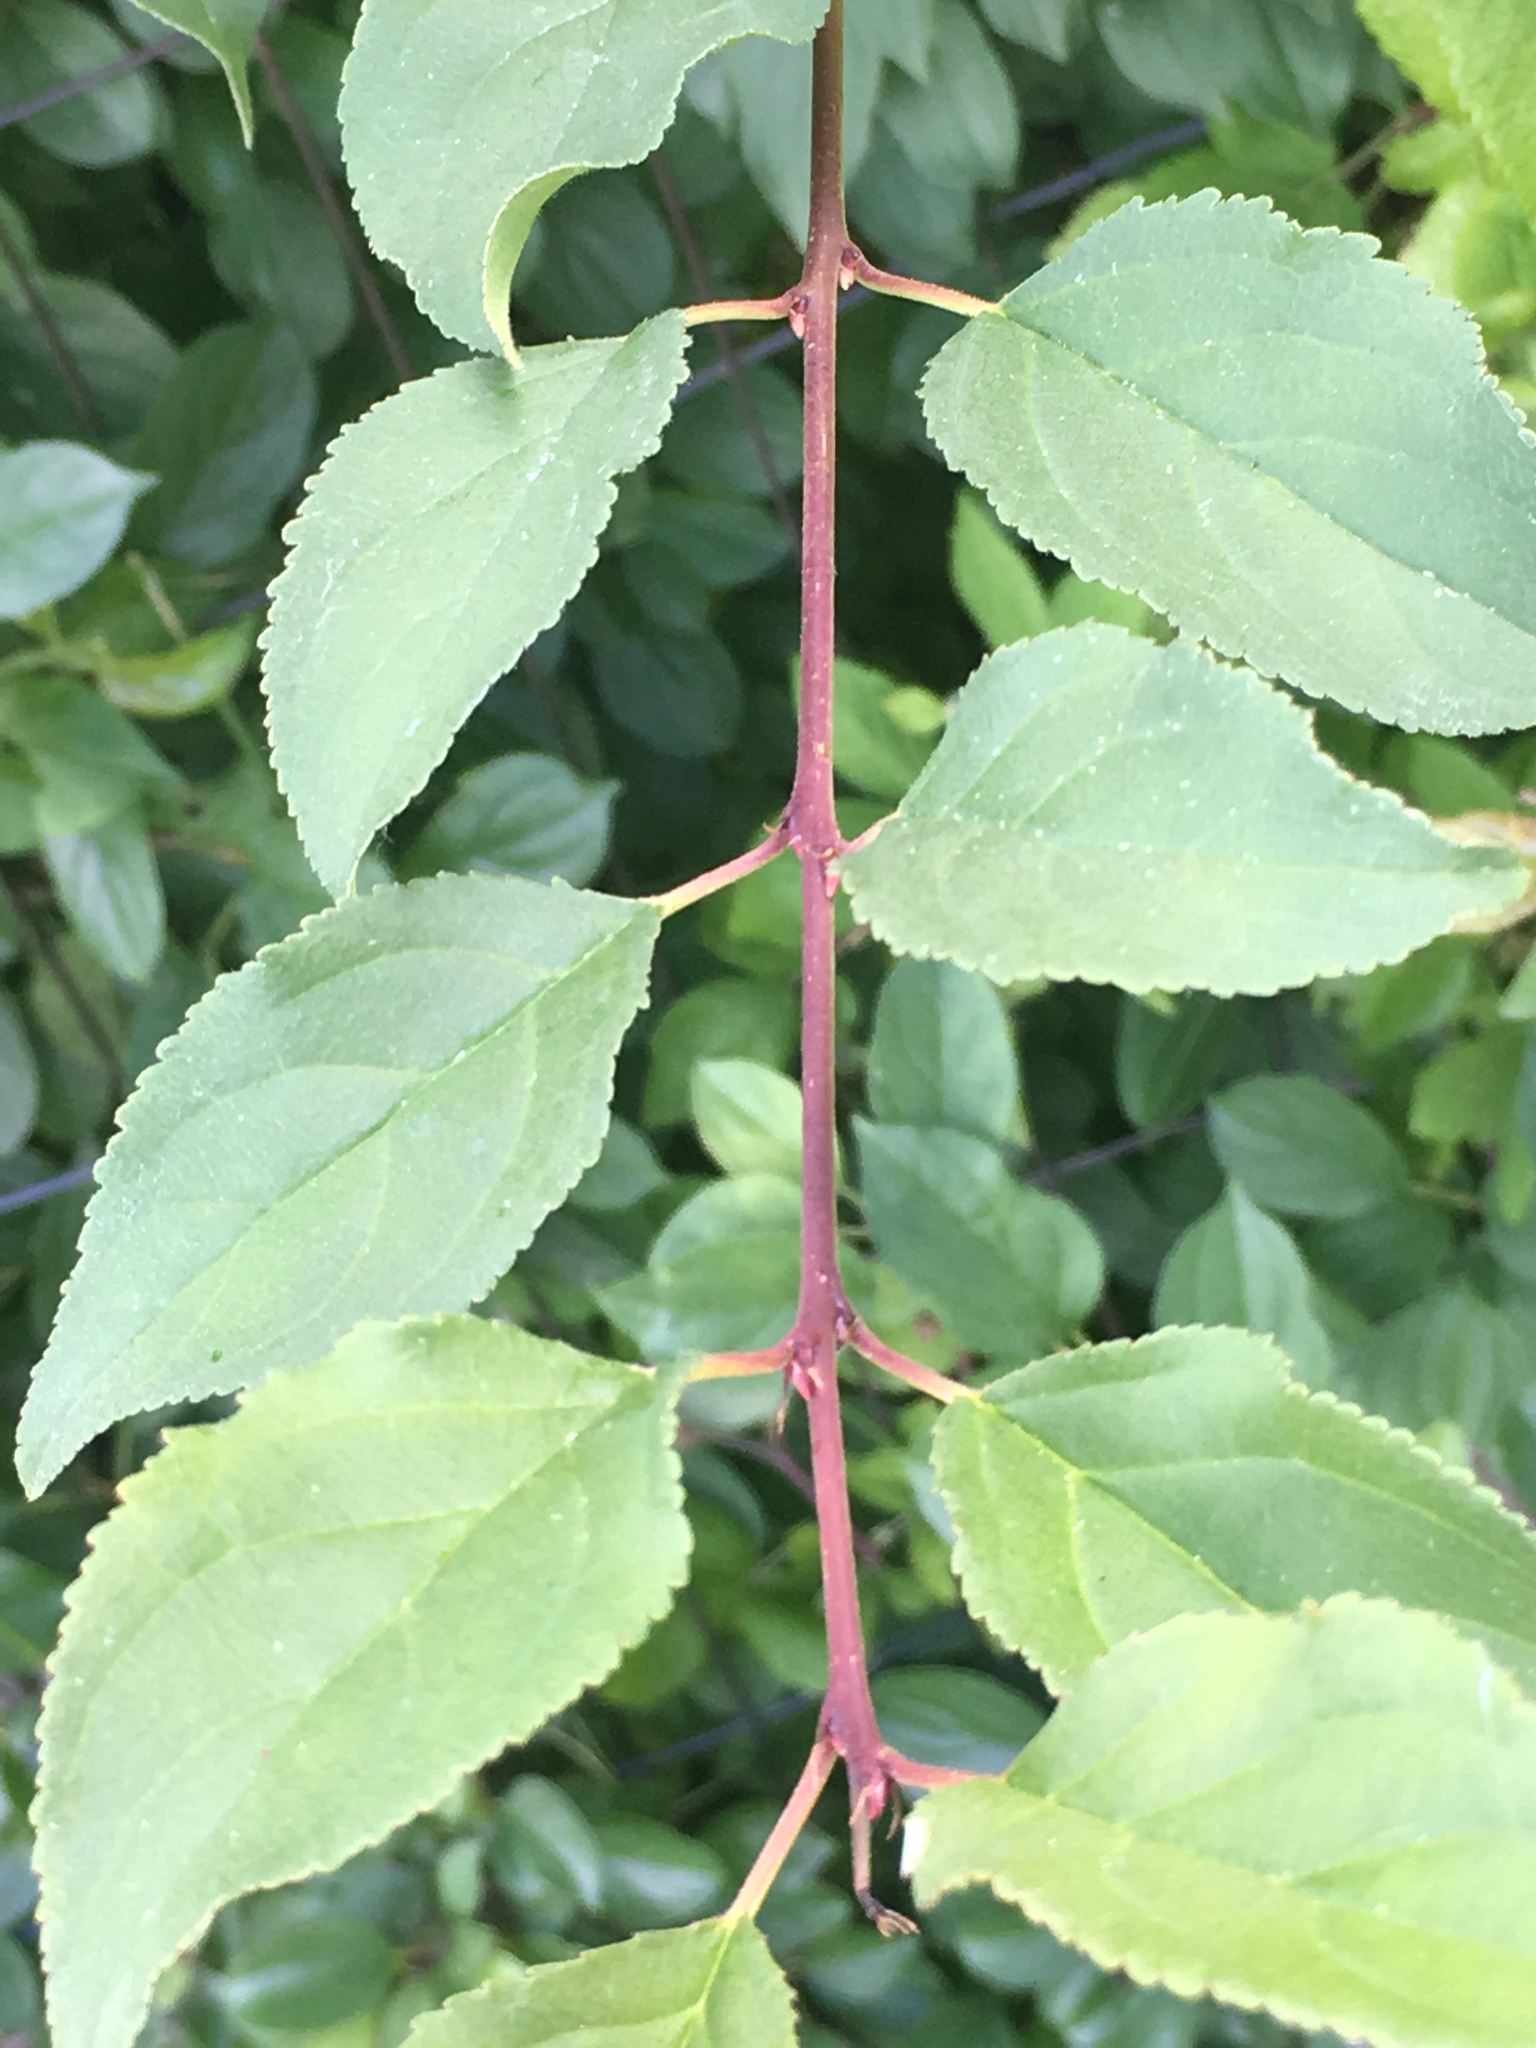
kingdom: Plantae
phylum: Tracheophyta
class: Magnoliopsida
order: Rosales
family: Rosaceae
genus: Rosa
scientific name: Rosa carolina
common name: Pasture rose
